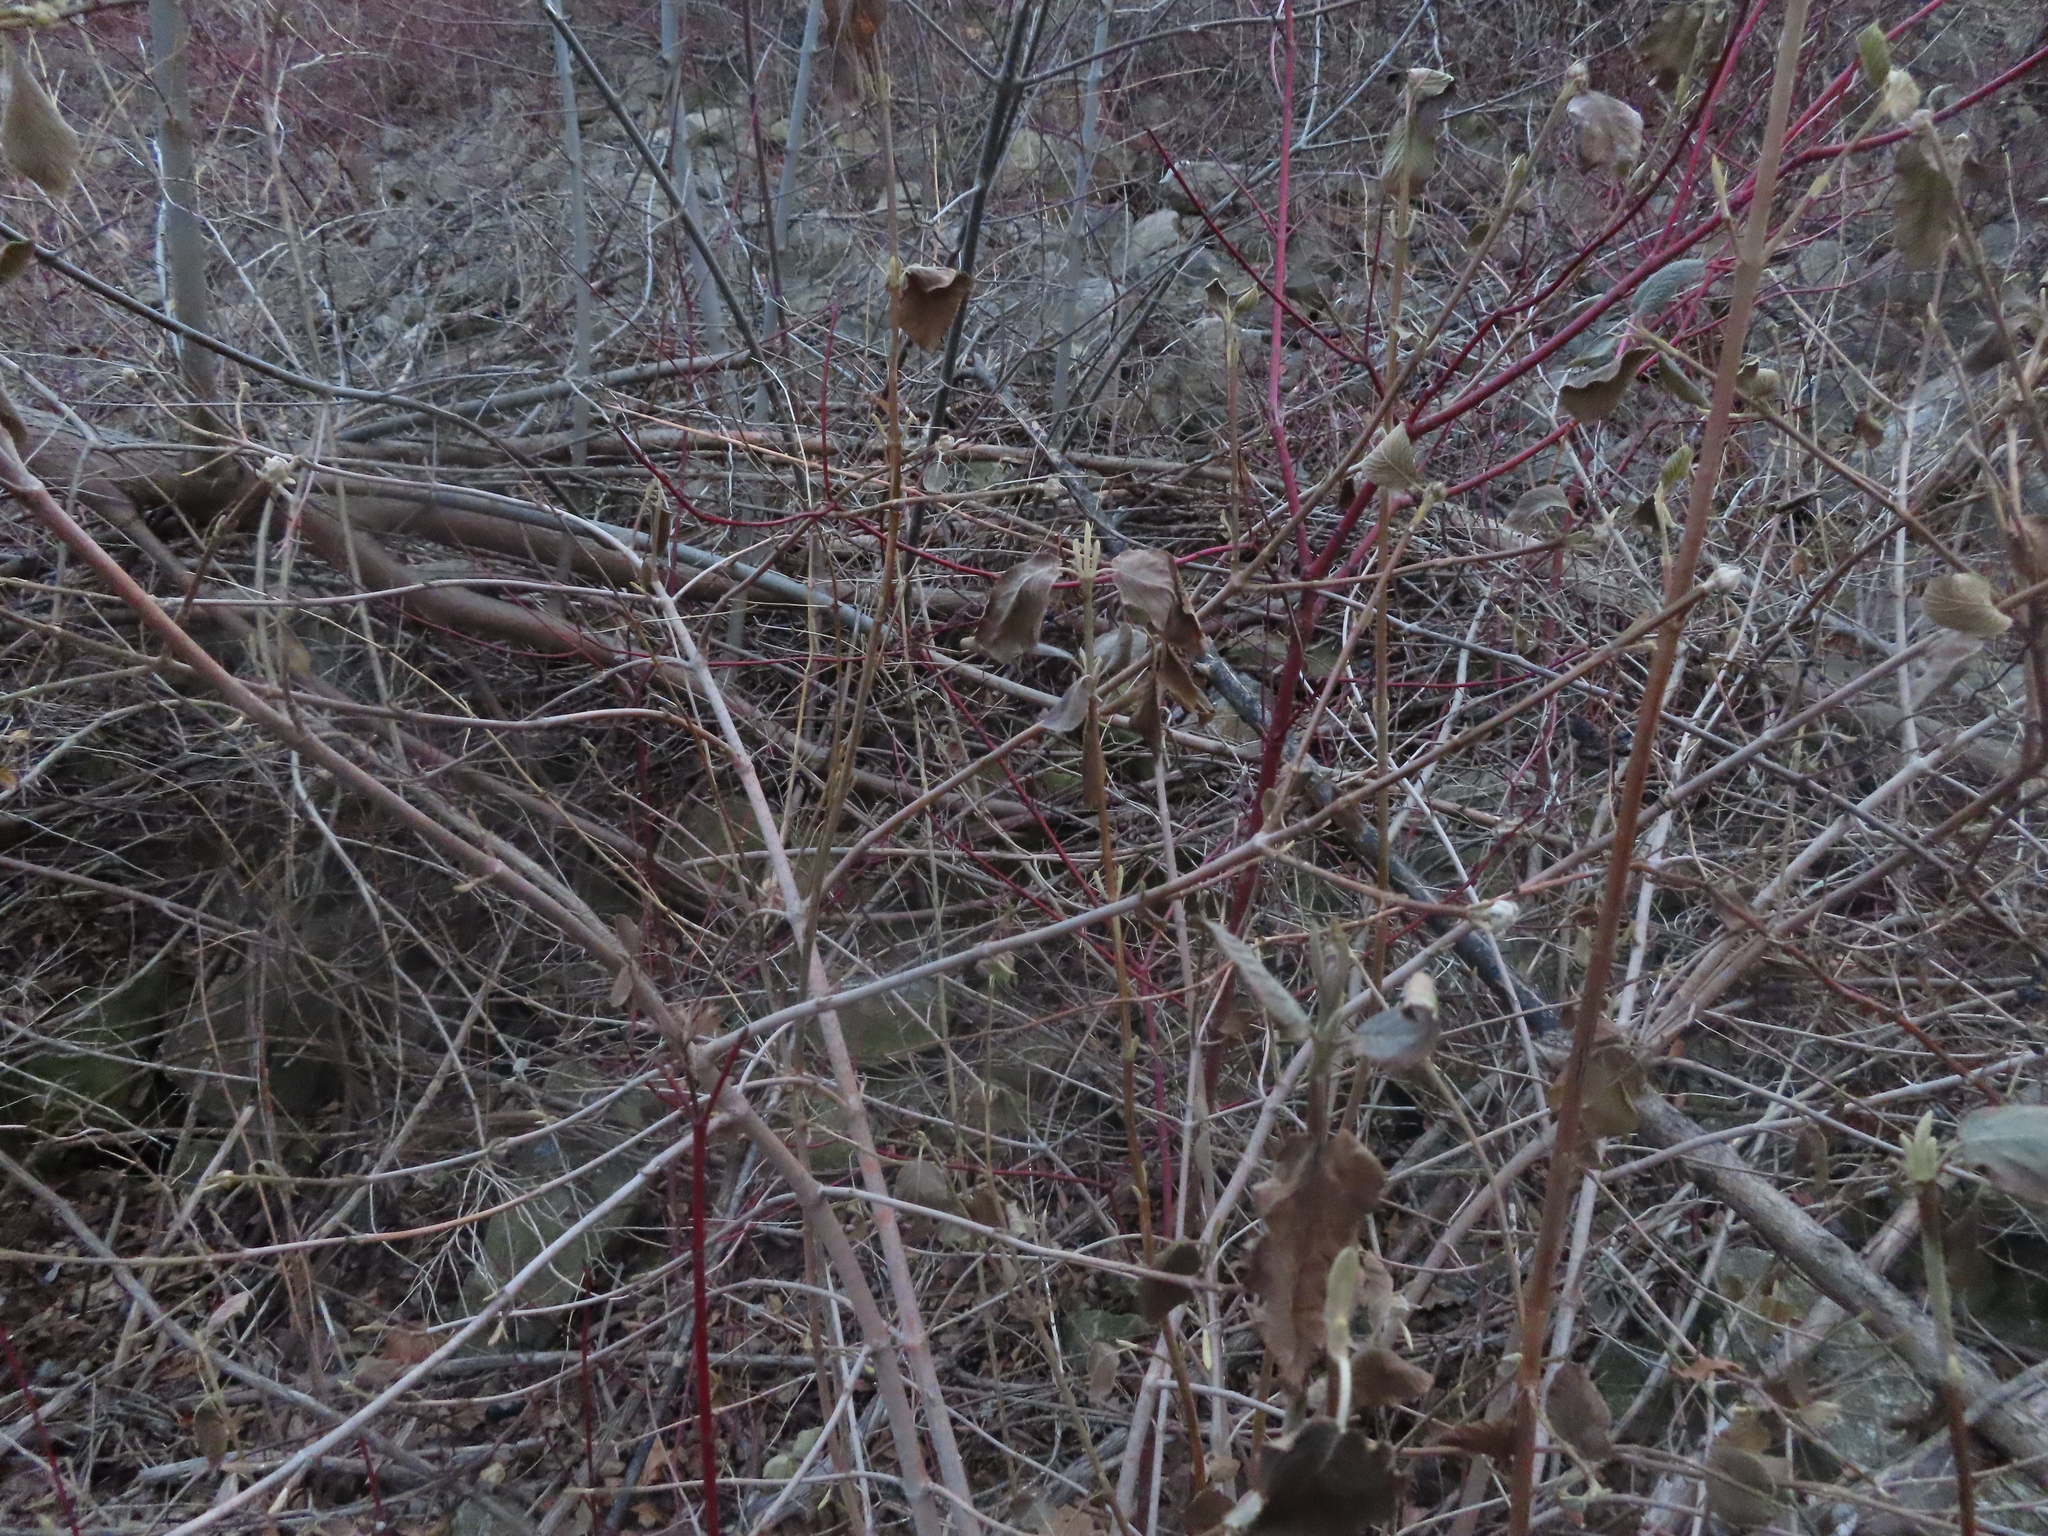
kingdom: Plantae
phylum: Tracheophyta
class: Magnoliopsida
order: Dipsacales
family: Viburnaceae
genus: Viburnum
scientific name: Viburnum lantana
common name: Wayfaring tree
